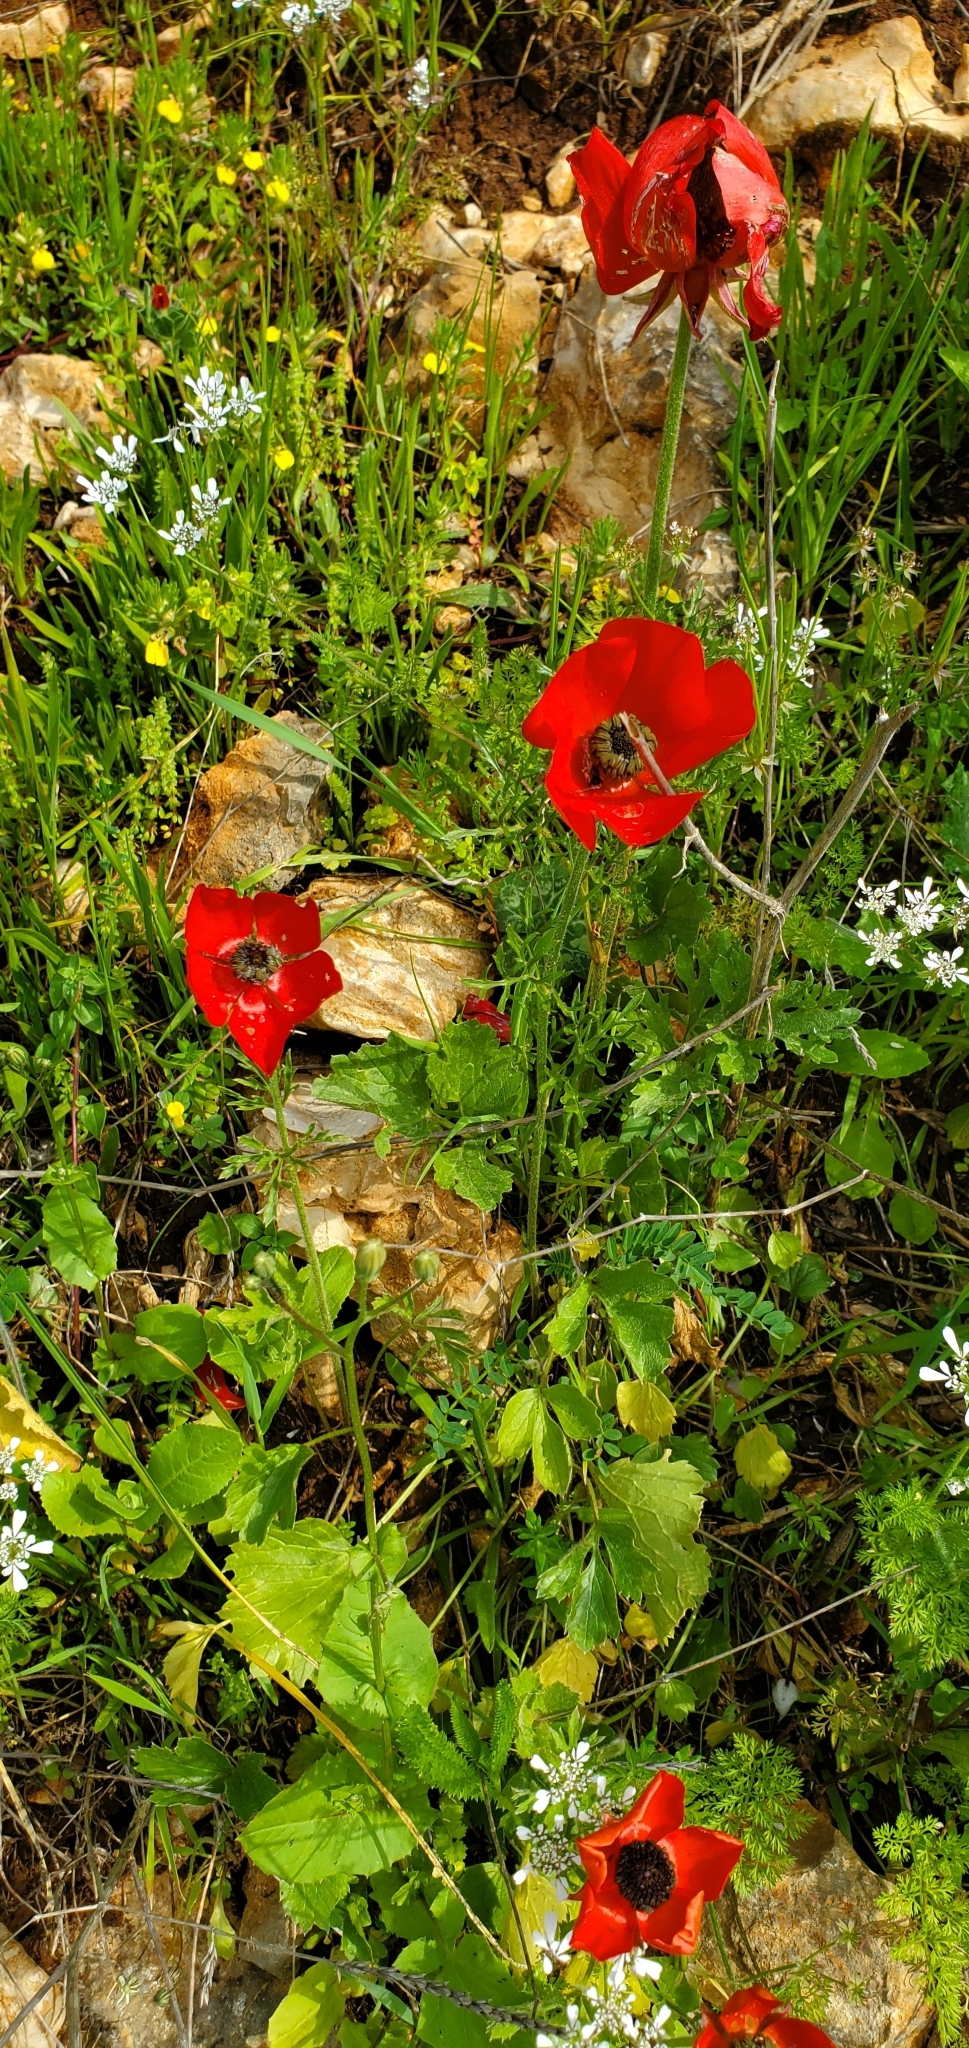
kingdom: Plantae
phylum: Tracheophyta
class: Magnoliopsida
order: Ranunculales
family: Ranunculaceae
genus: Ranunculus
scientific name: Ranunculus asiaticus
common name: Persian buttercup
